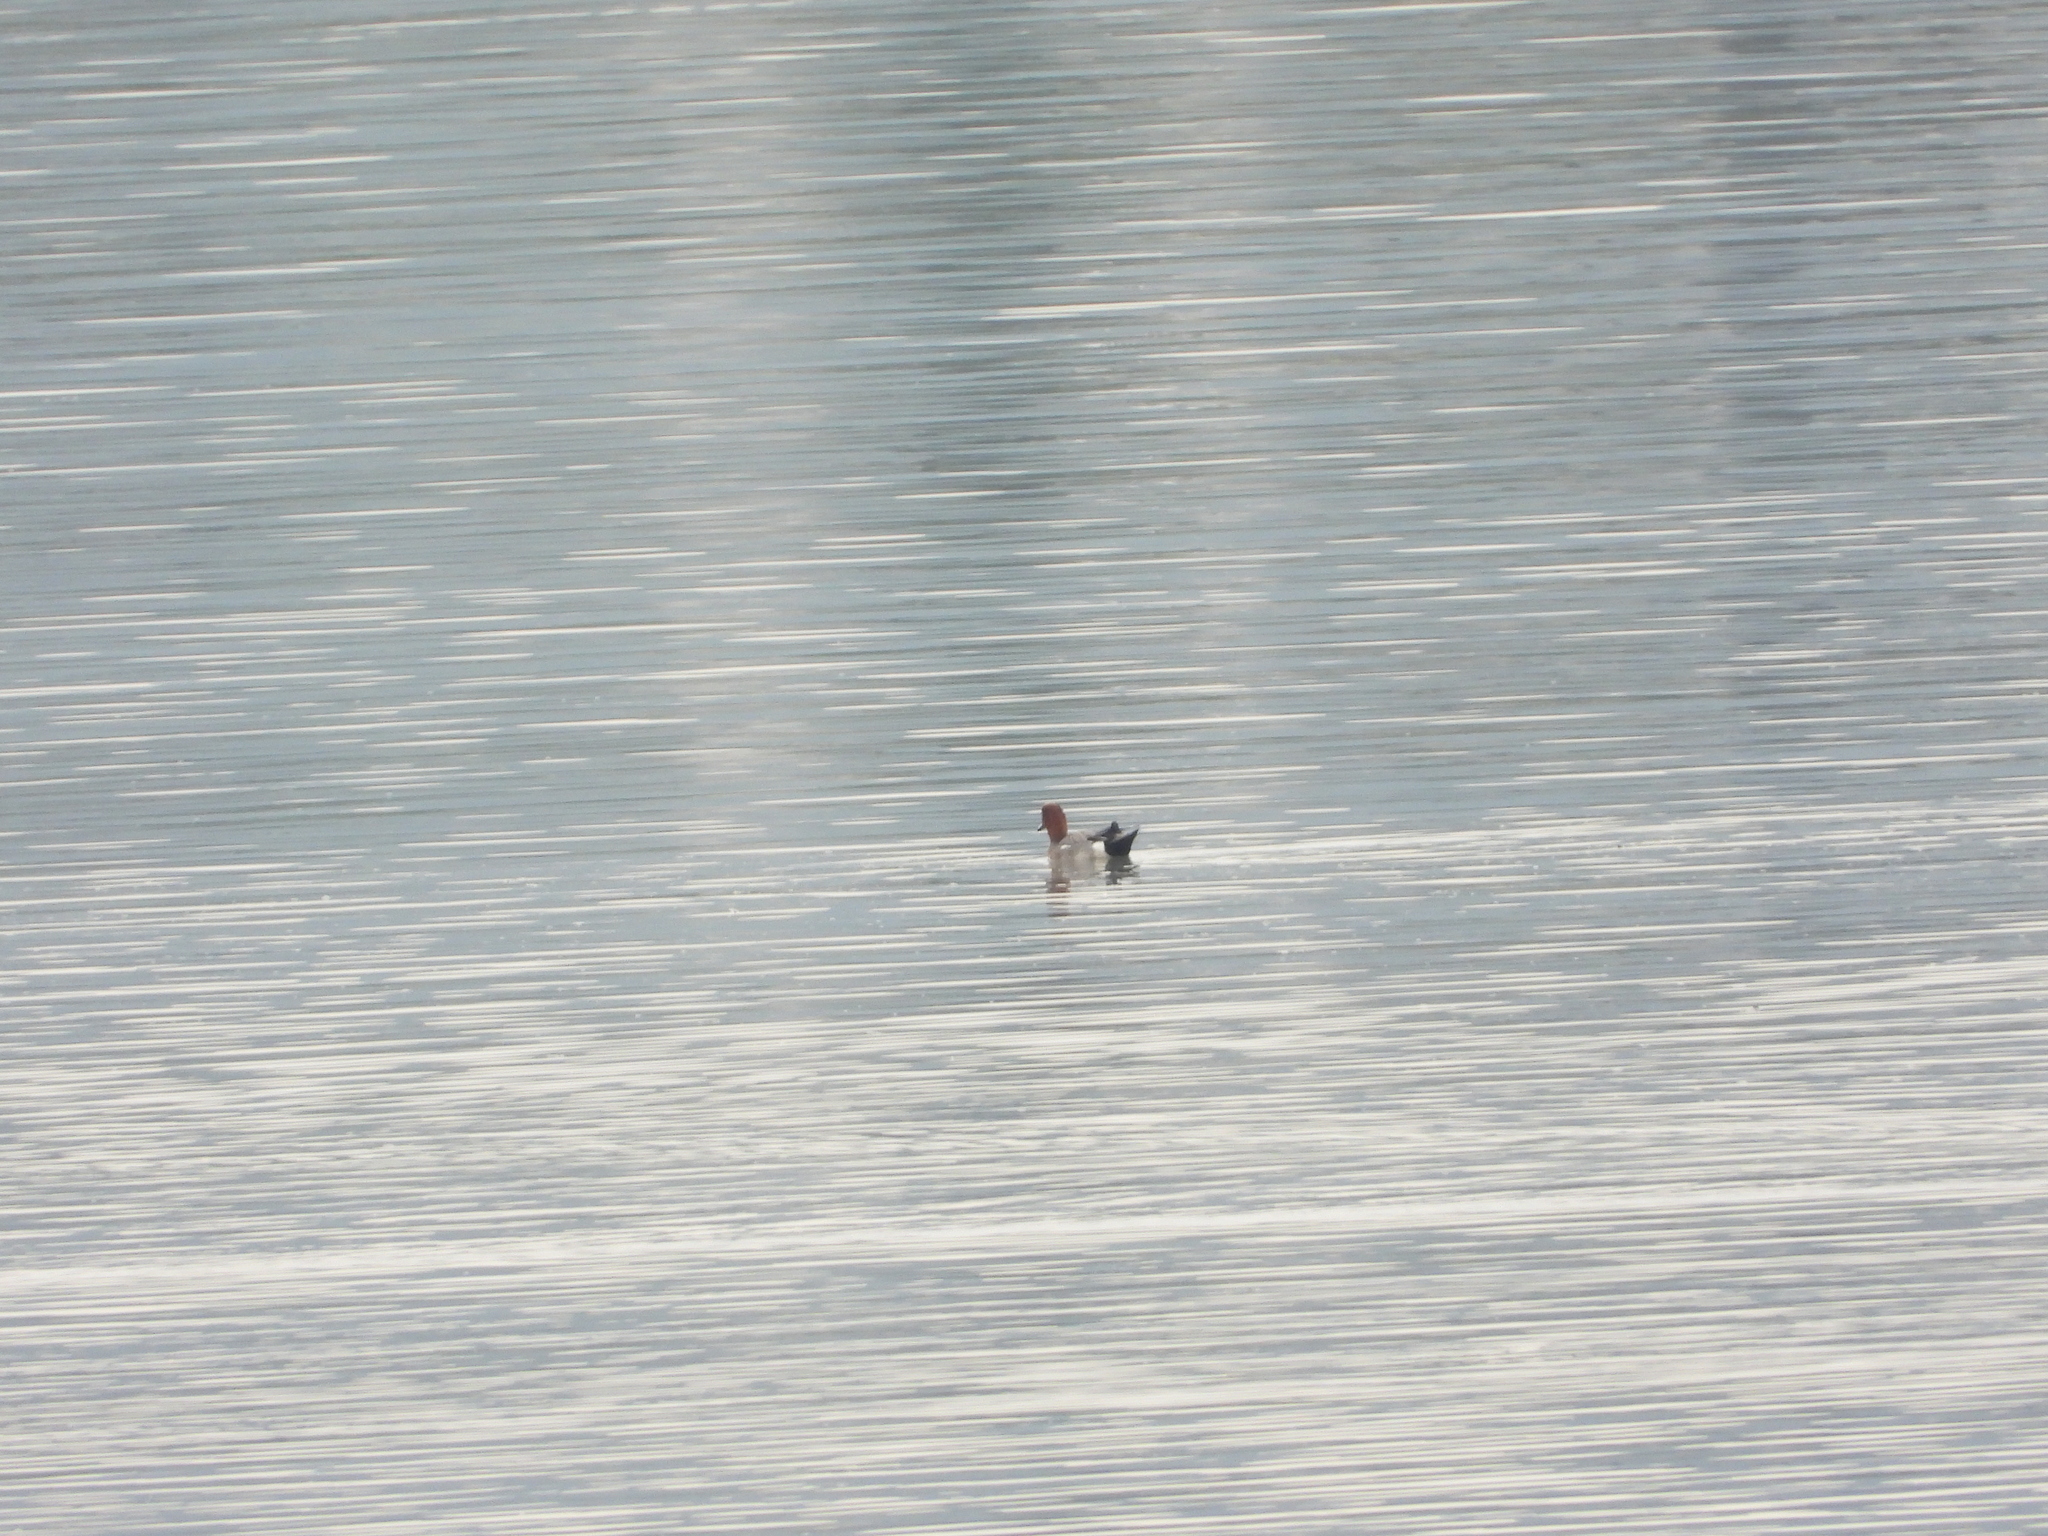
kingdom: Animalia
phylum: Chordata
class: Aves
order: Anseriformes
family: Anatidae
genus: Mareca
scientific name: Mareca penelope
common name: Eurasian wigeon
